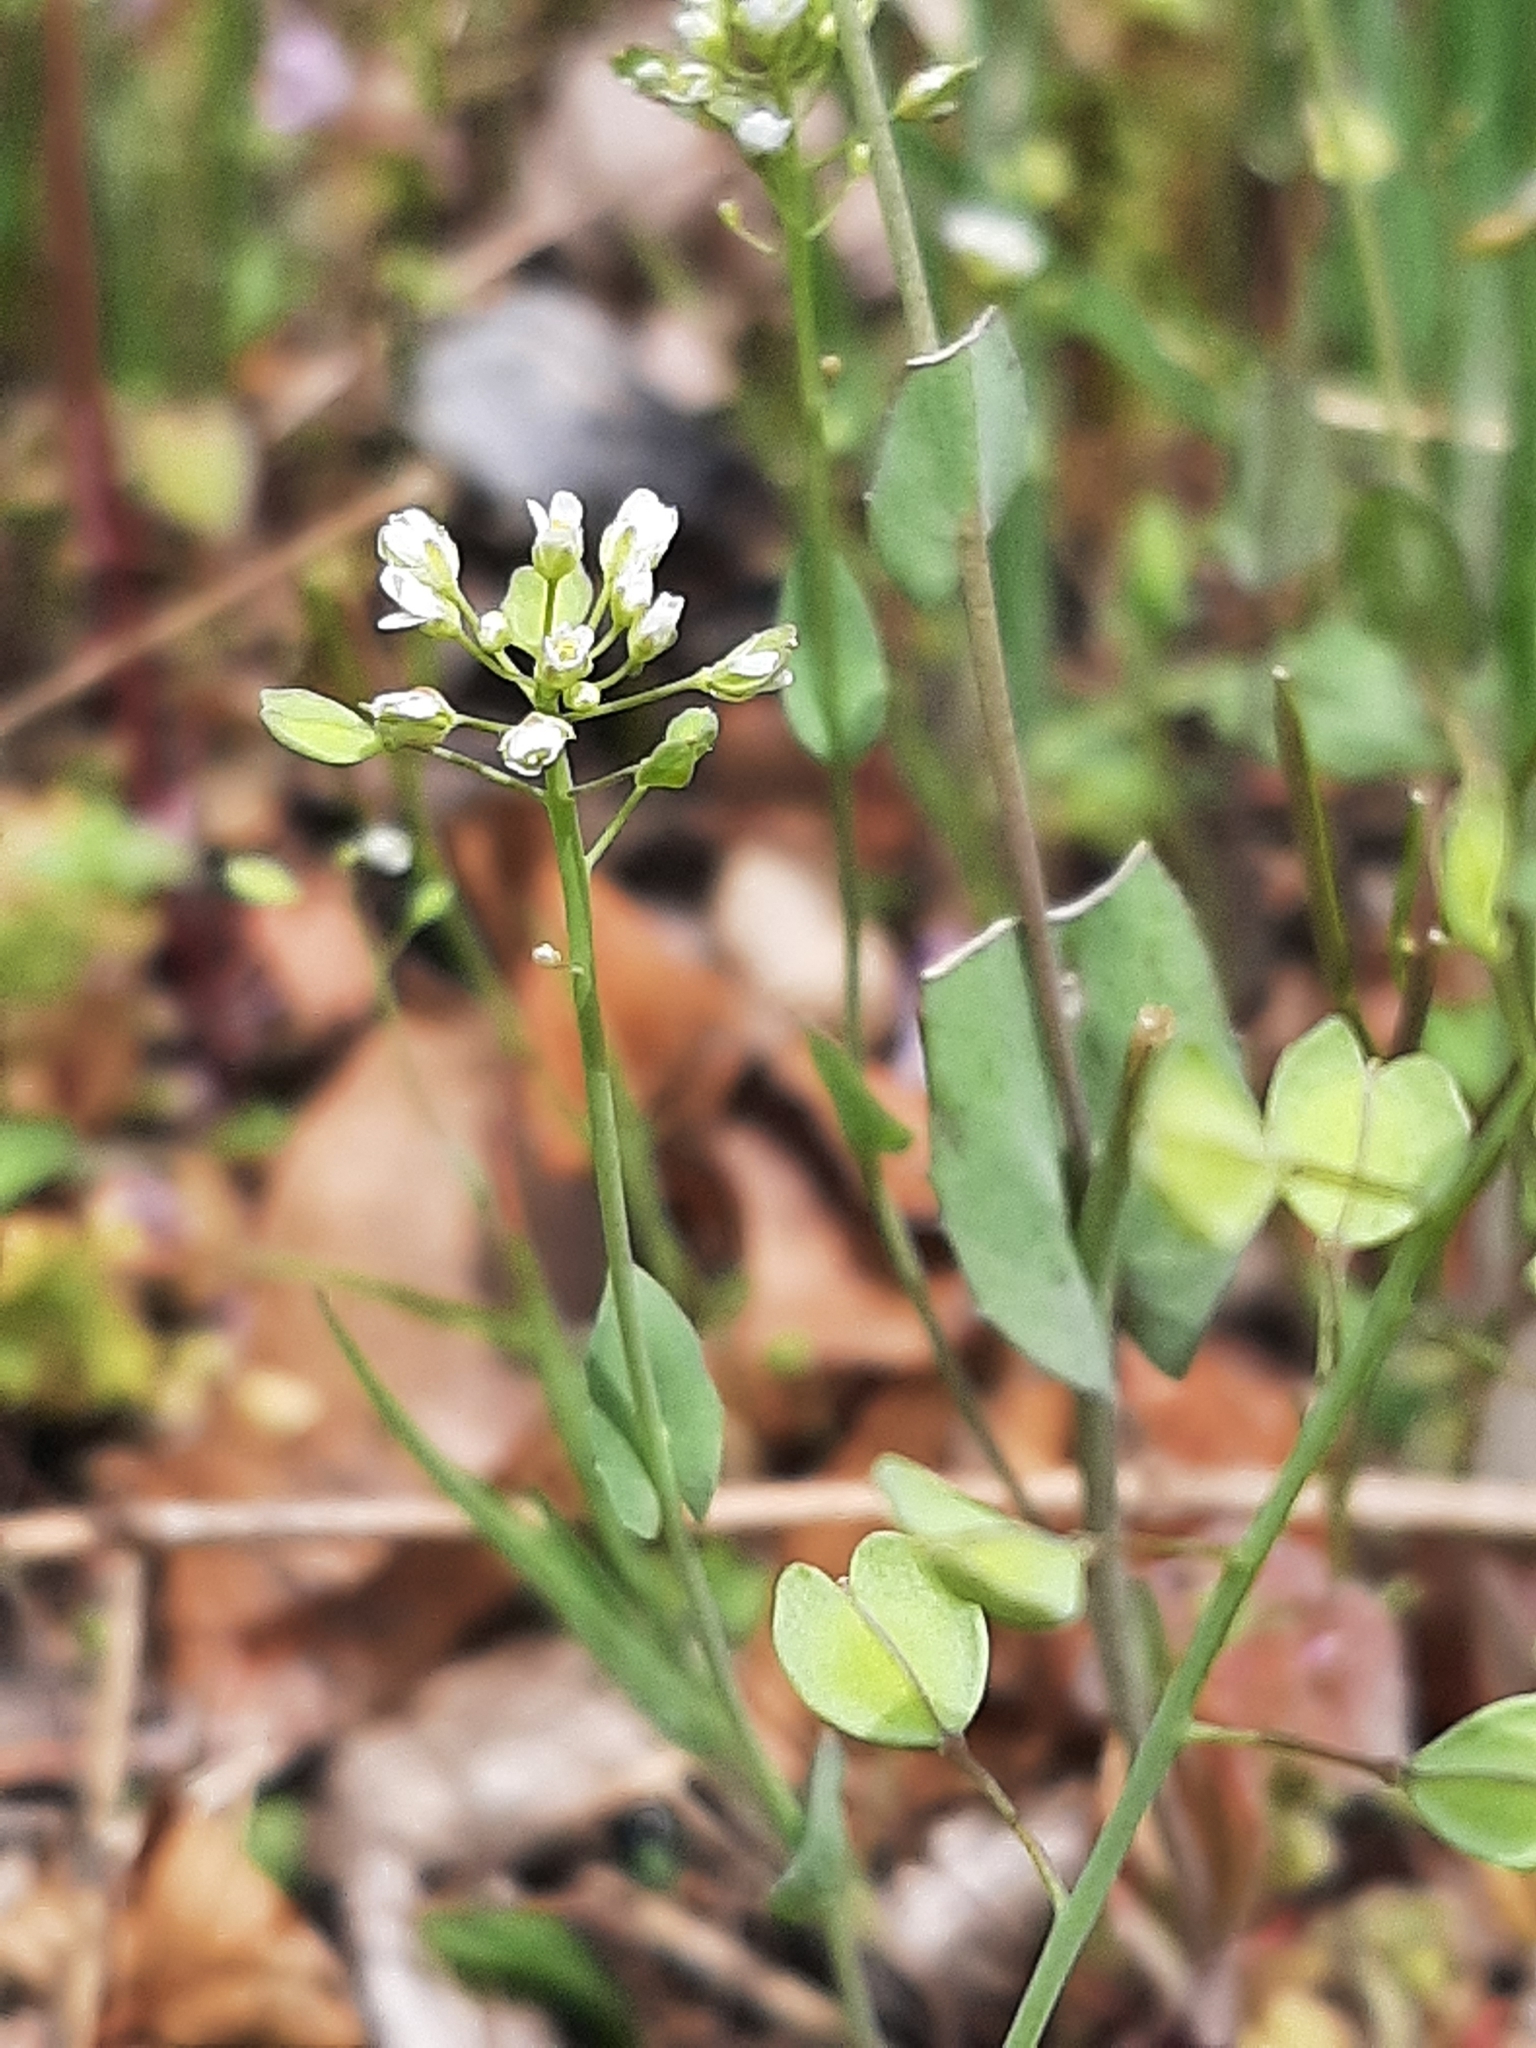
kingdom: Plantae
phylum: Tracheophyta
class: Magnoliopsida
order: Brassicales
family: Brassicaceae
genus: Noccaea
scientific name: Noccaea perfoliata
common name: Perfoliate pennycress
